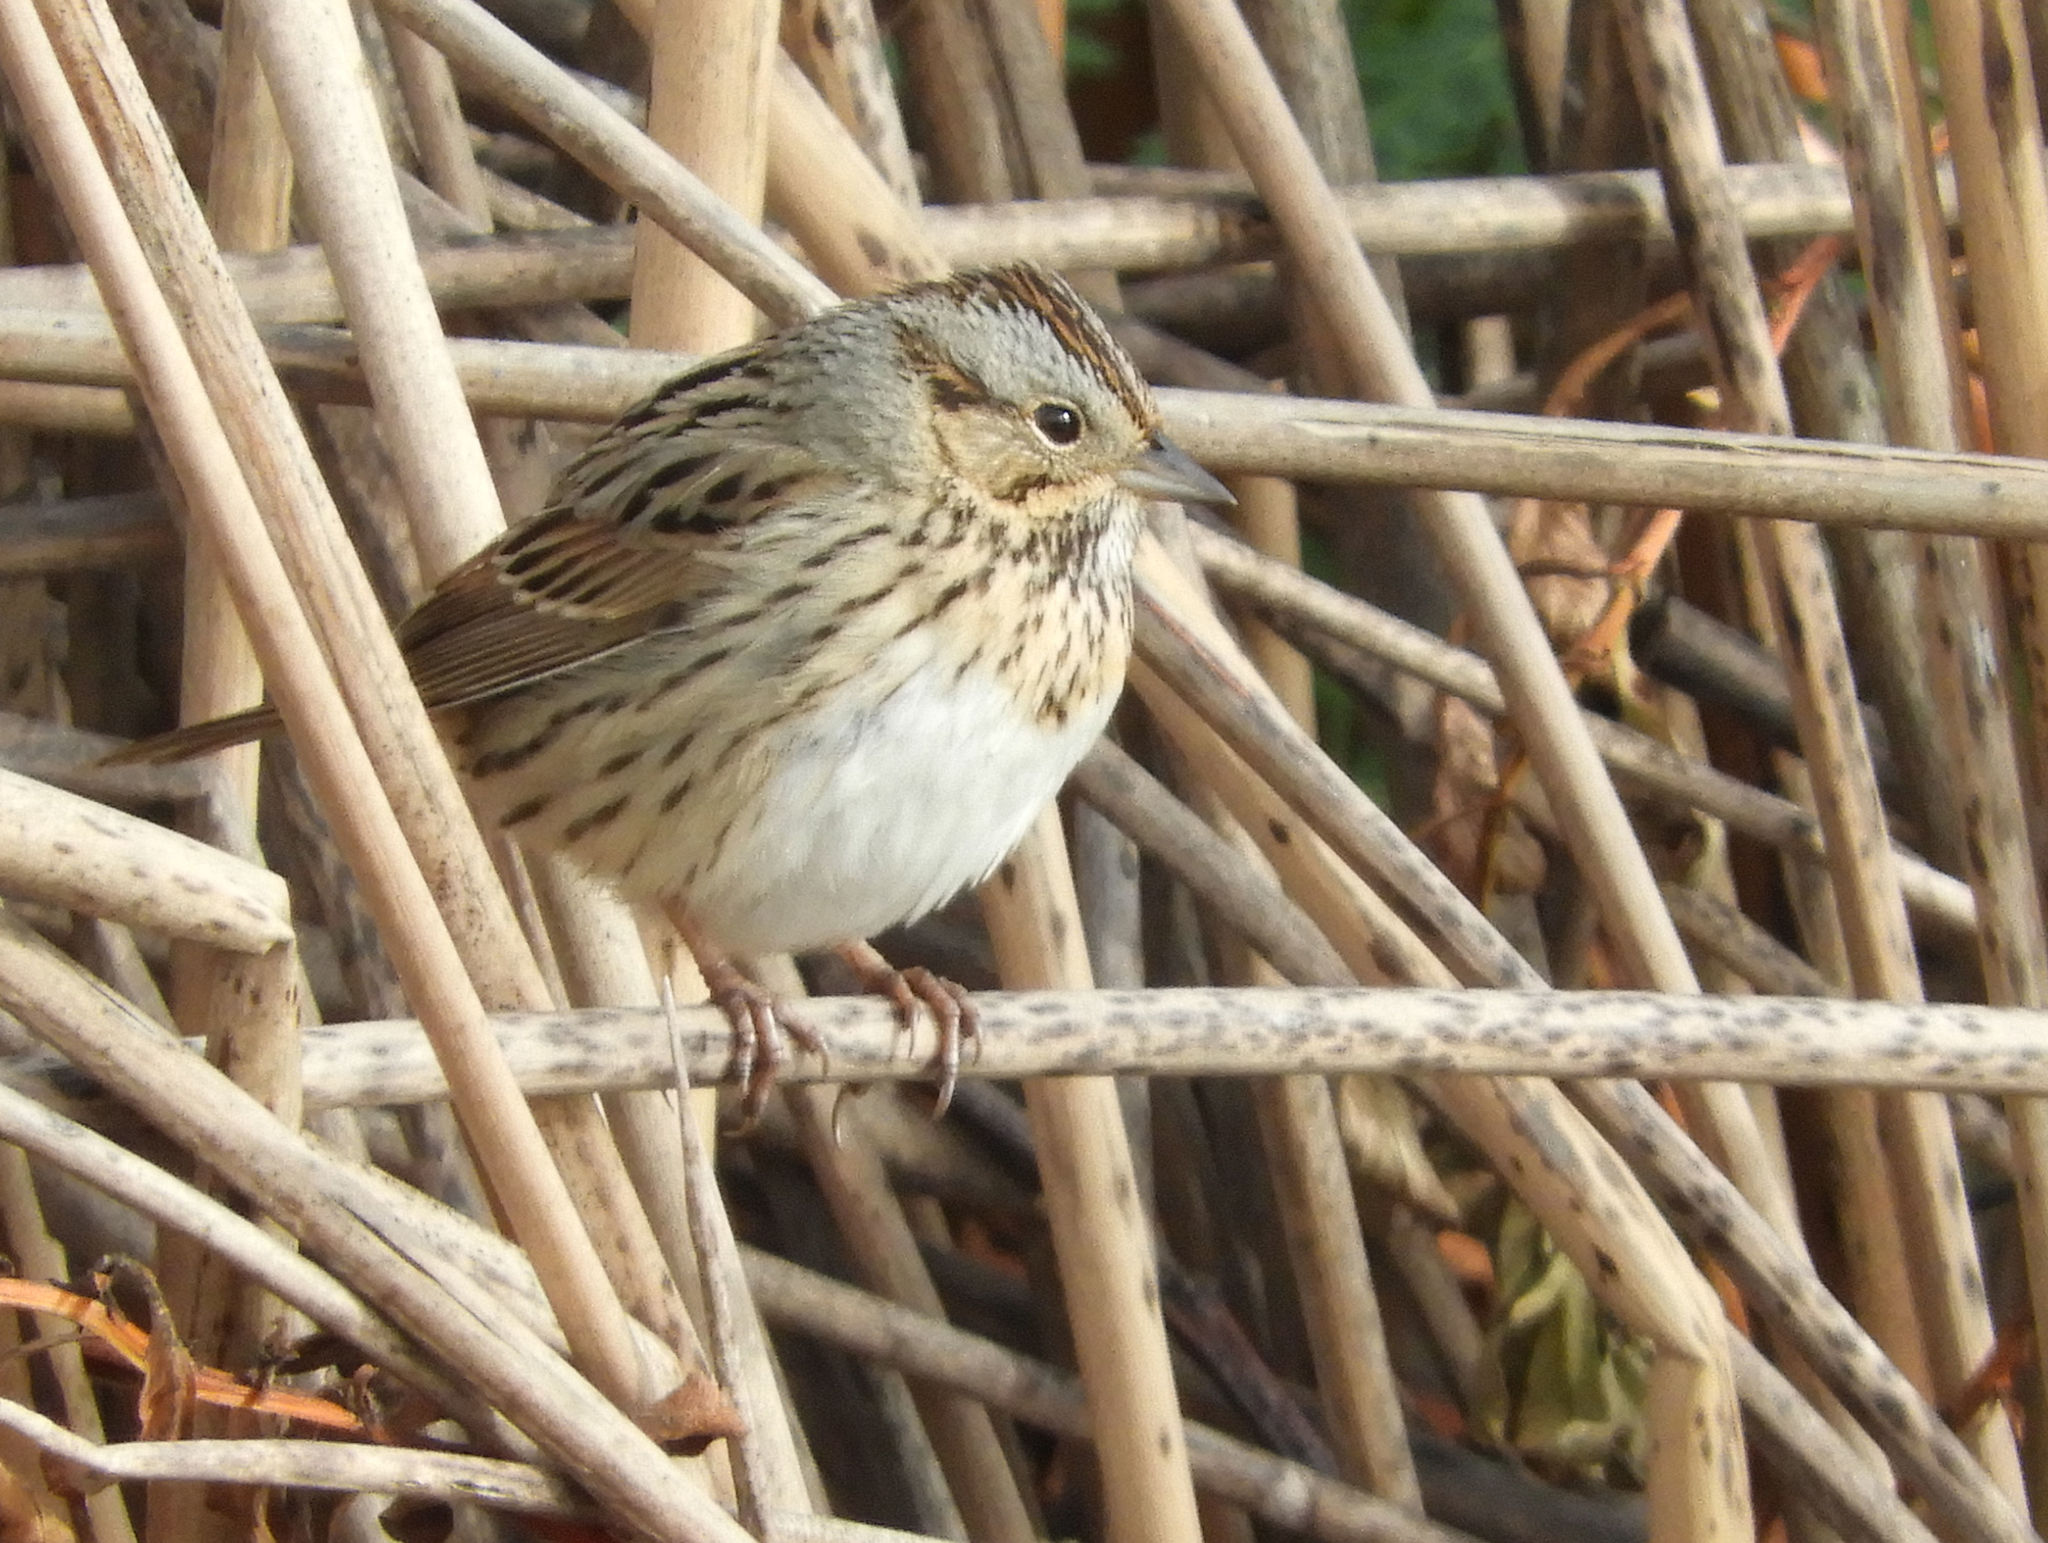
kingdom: Animalia
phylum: Chordata
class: Aves
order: Passeriformes
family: Passerellidae
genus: Melospiza
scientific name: Melospiza lincolnii
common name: Lincoln's sparrow
